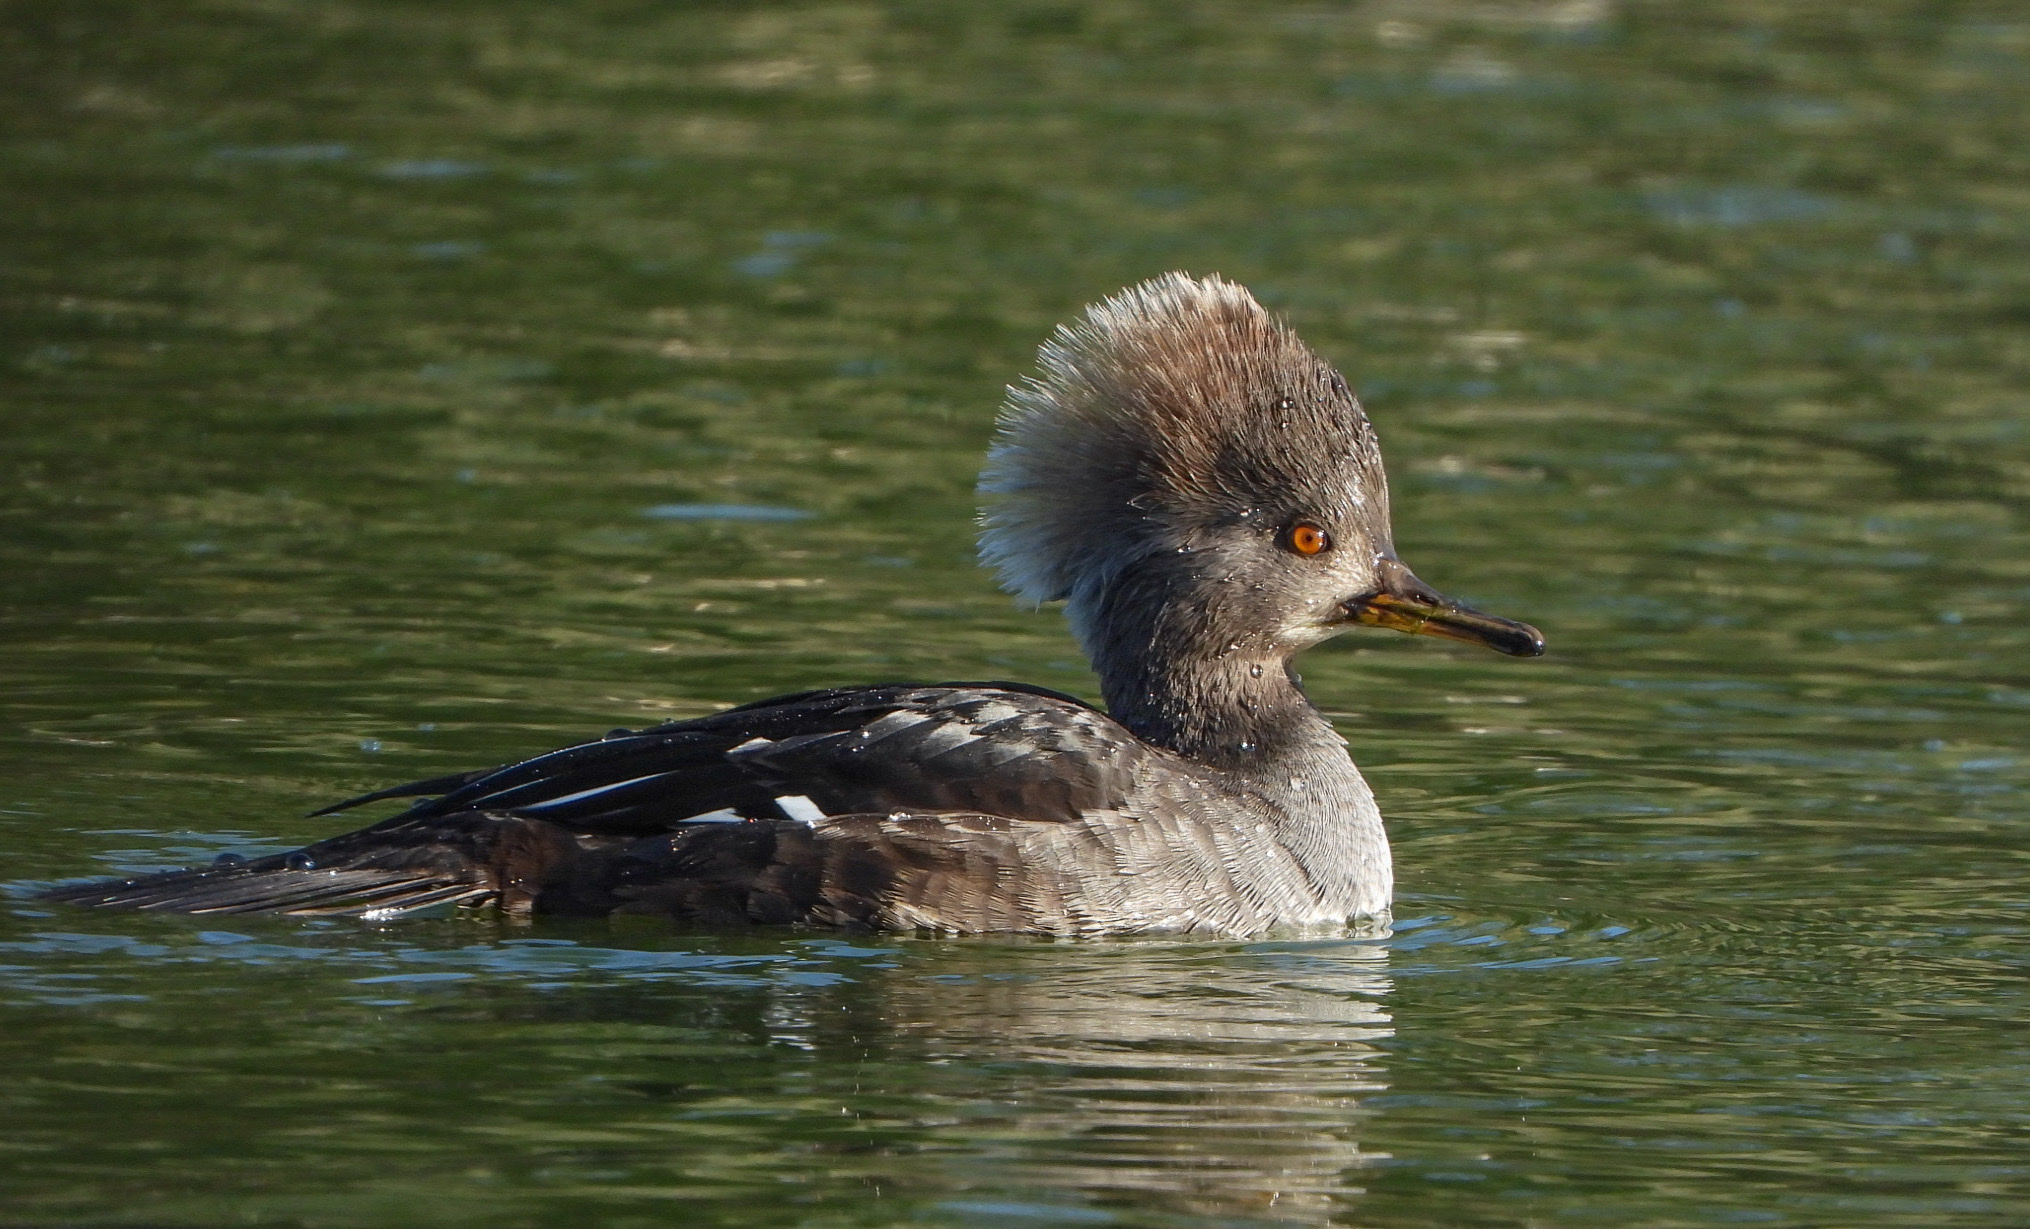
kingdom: Animalia
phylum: Chordata
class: Aves
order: Anseriformes
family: Anatidae
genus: Lophodytes
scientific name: Lophodytes cucullatus
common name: Hooded merganser
